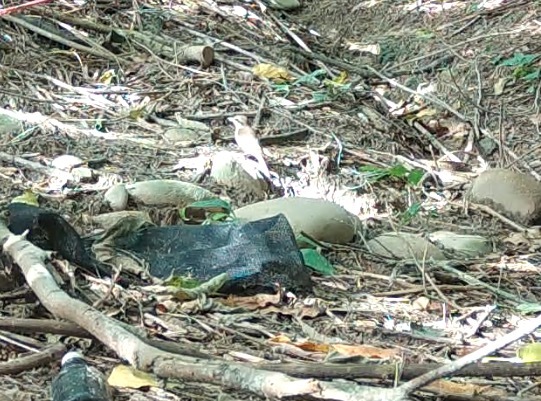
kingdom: Animalia
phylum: Chordata
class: Aves
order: Passeriformes
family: Laniidae
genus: Lanius
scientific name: Lanius cristatus
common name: Brown shrike
